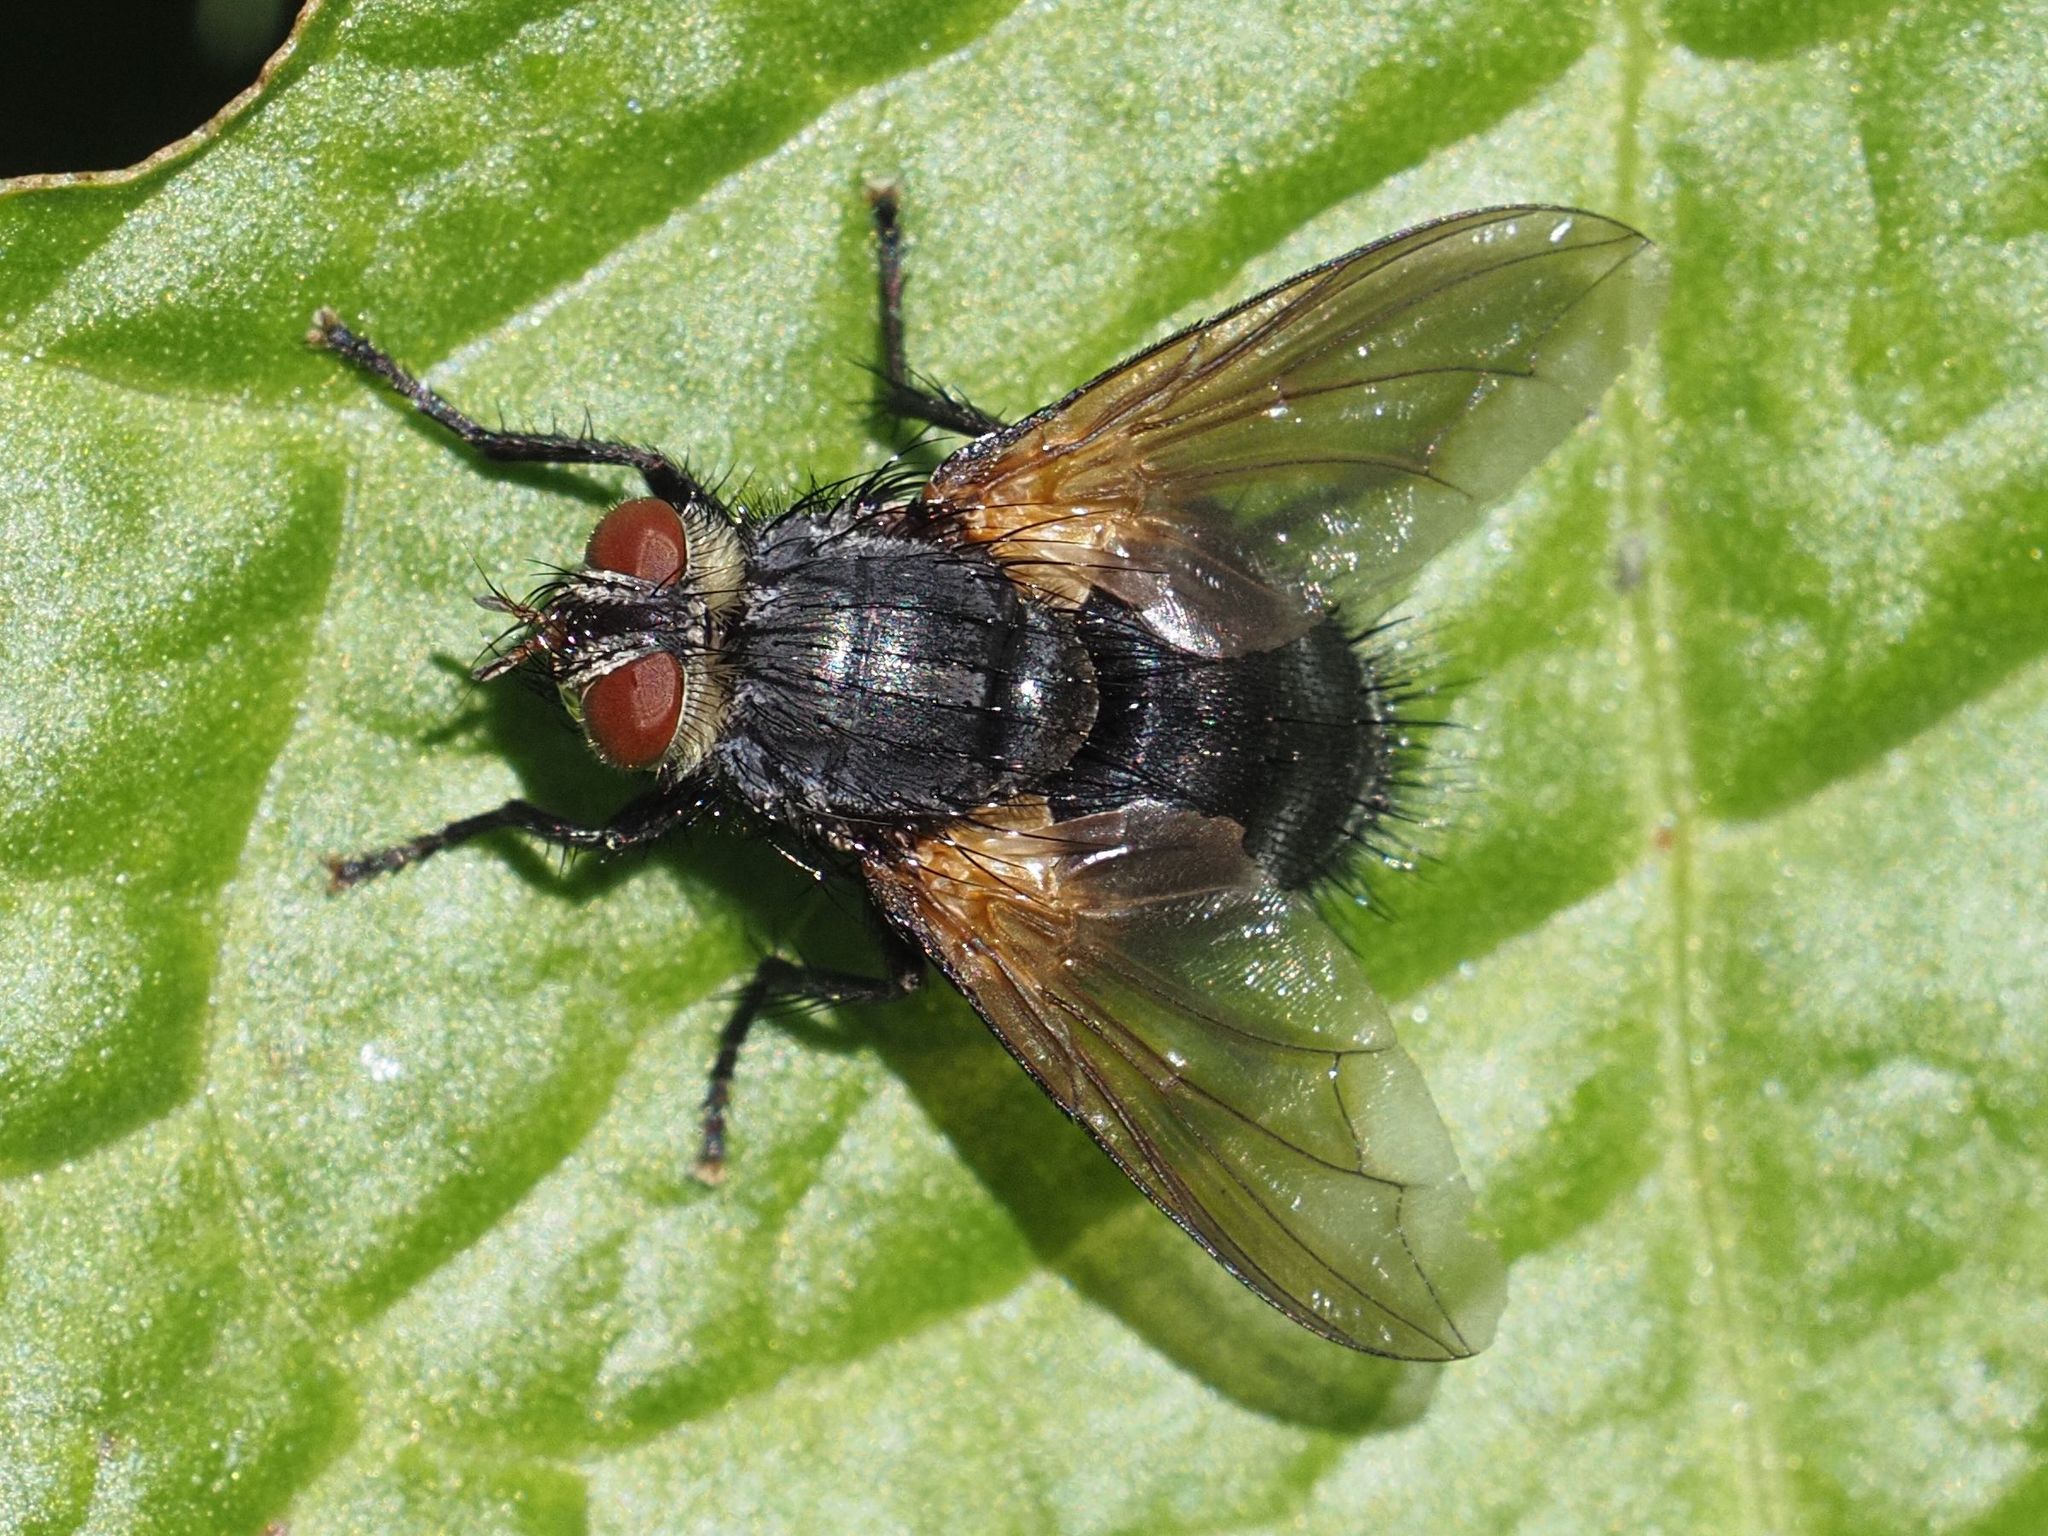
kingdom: Animalia
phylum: Arthropoda
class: Insecta
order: Diptera
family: Tachinidae
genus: Nemoraea
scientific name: Nemoraea pellucida
